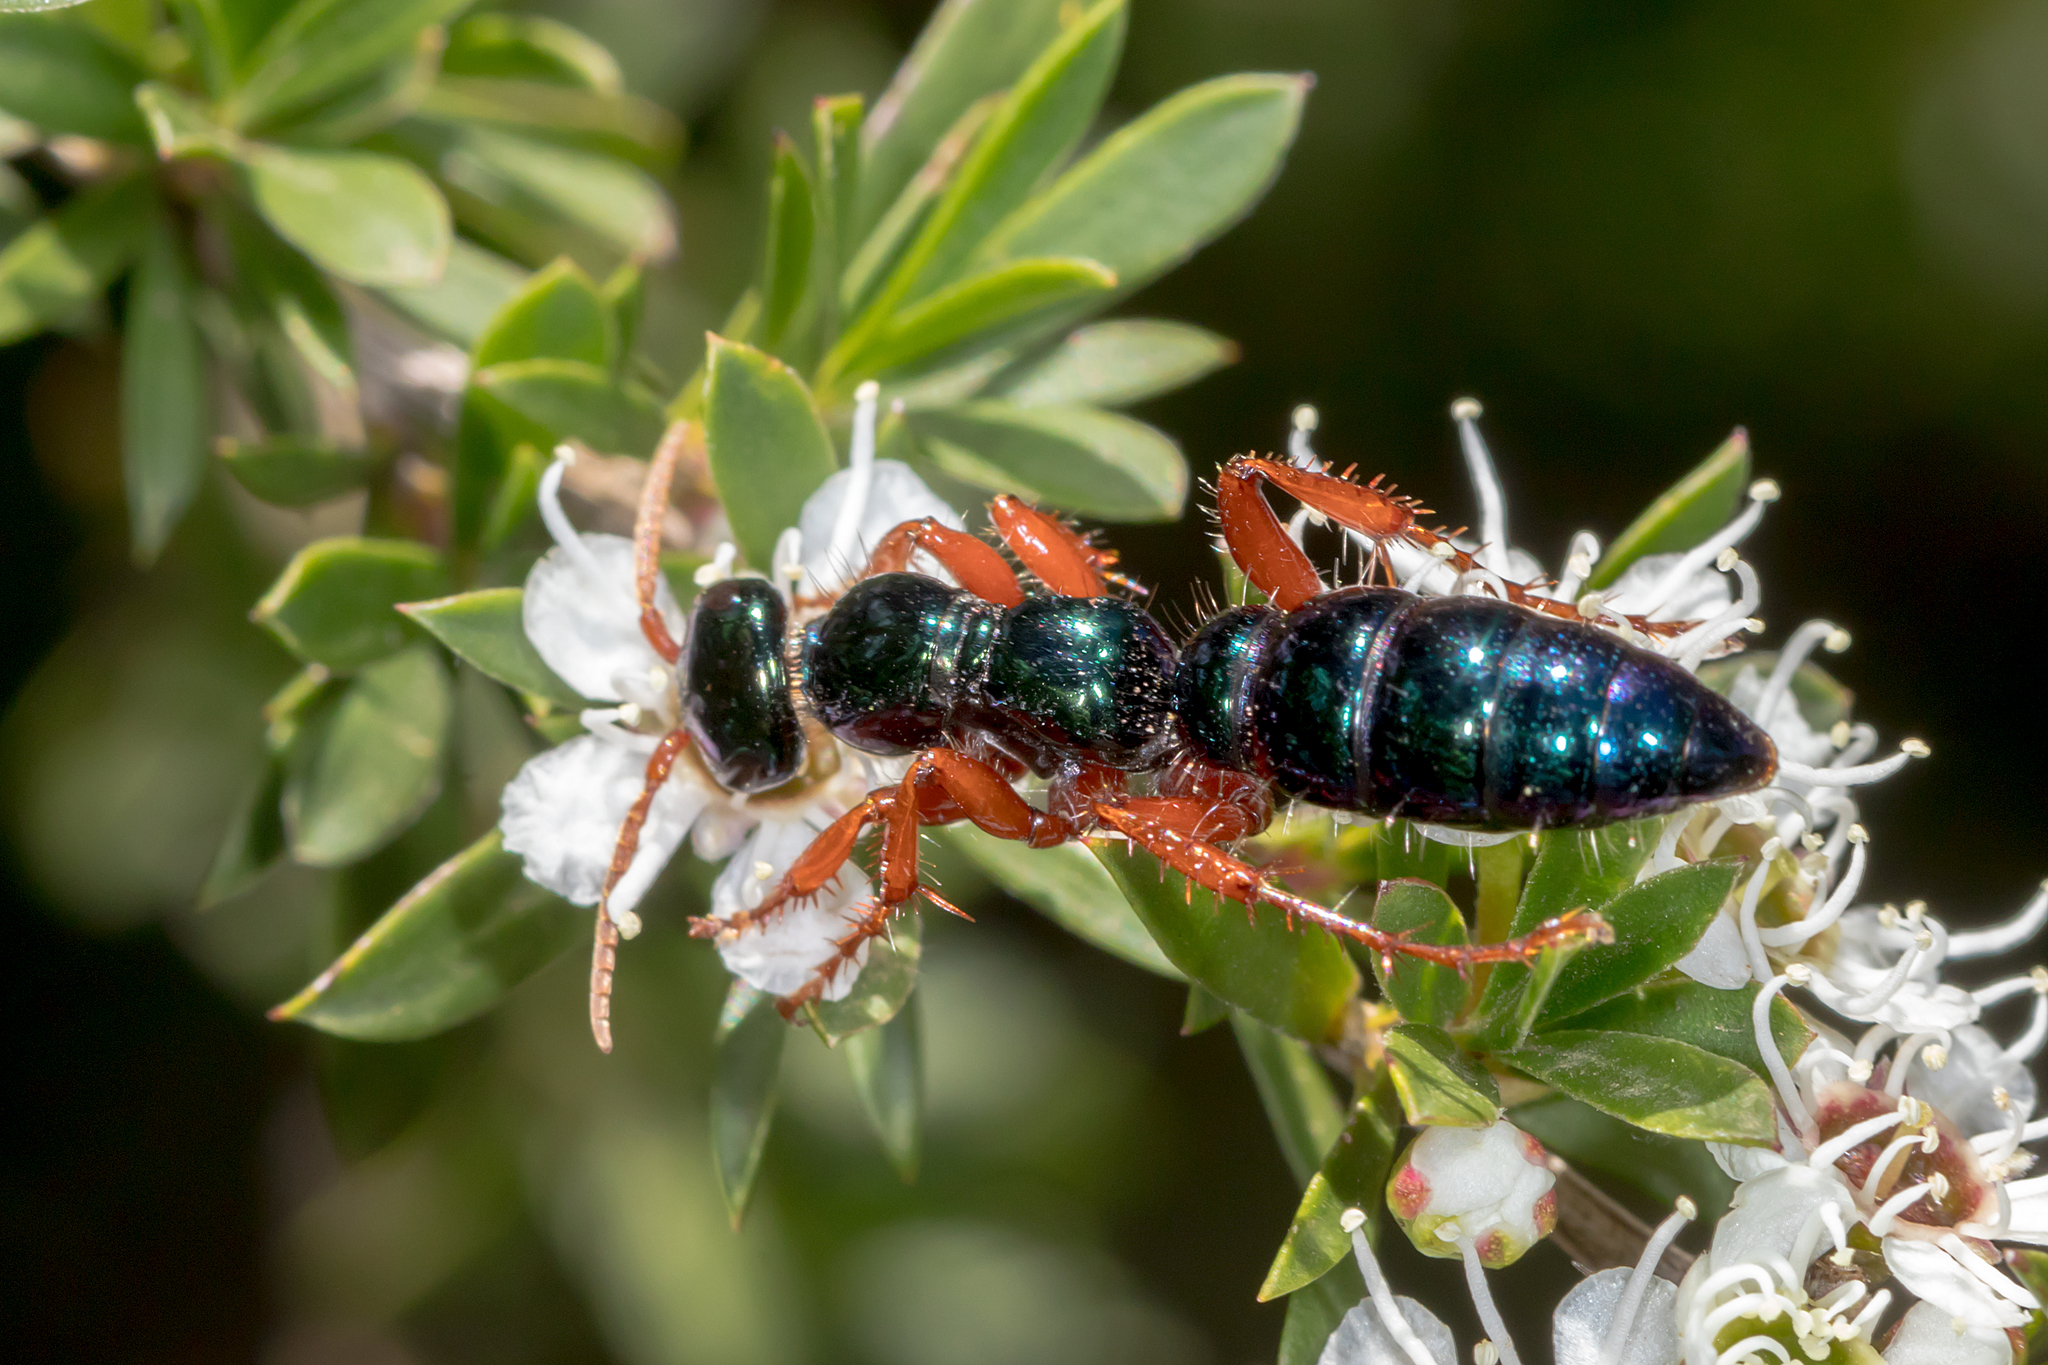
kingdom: Animalia
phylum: Arthropoda
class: Insecta
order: Hymenoptera
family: Tiphiidae
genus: Diamma
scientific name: Diamma
